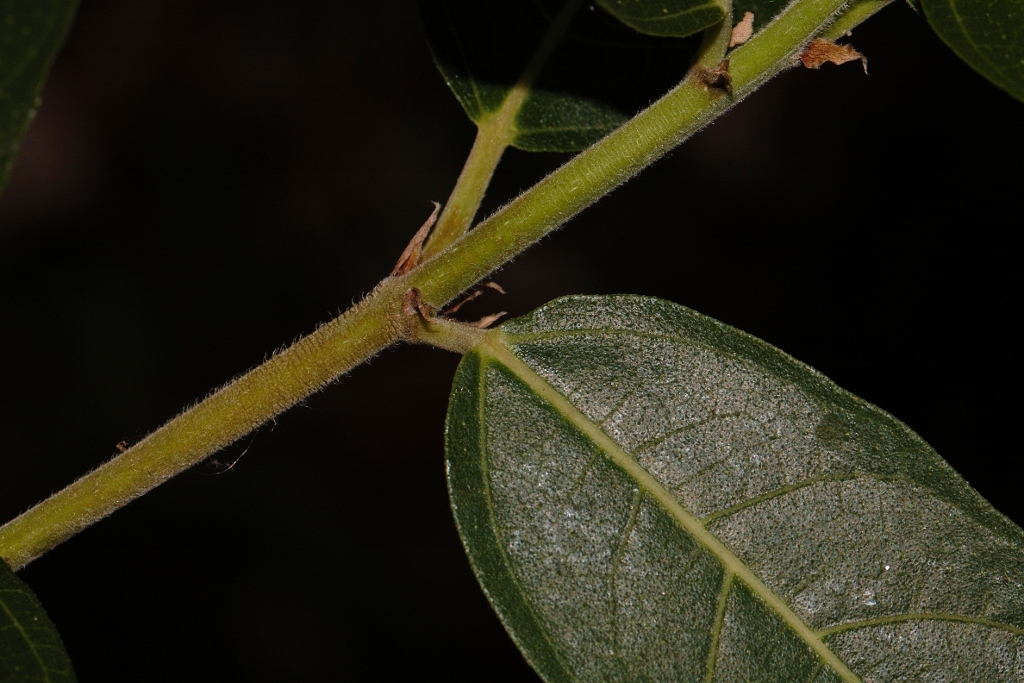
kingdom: Plantae
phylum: Tracheophyta
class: Magnoliopsida
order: Rosales
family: Moraceae
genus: Ficus
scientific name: Ficus capreifolia
